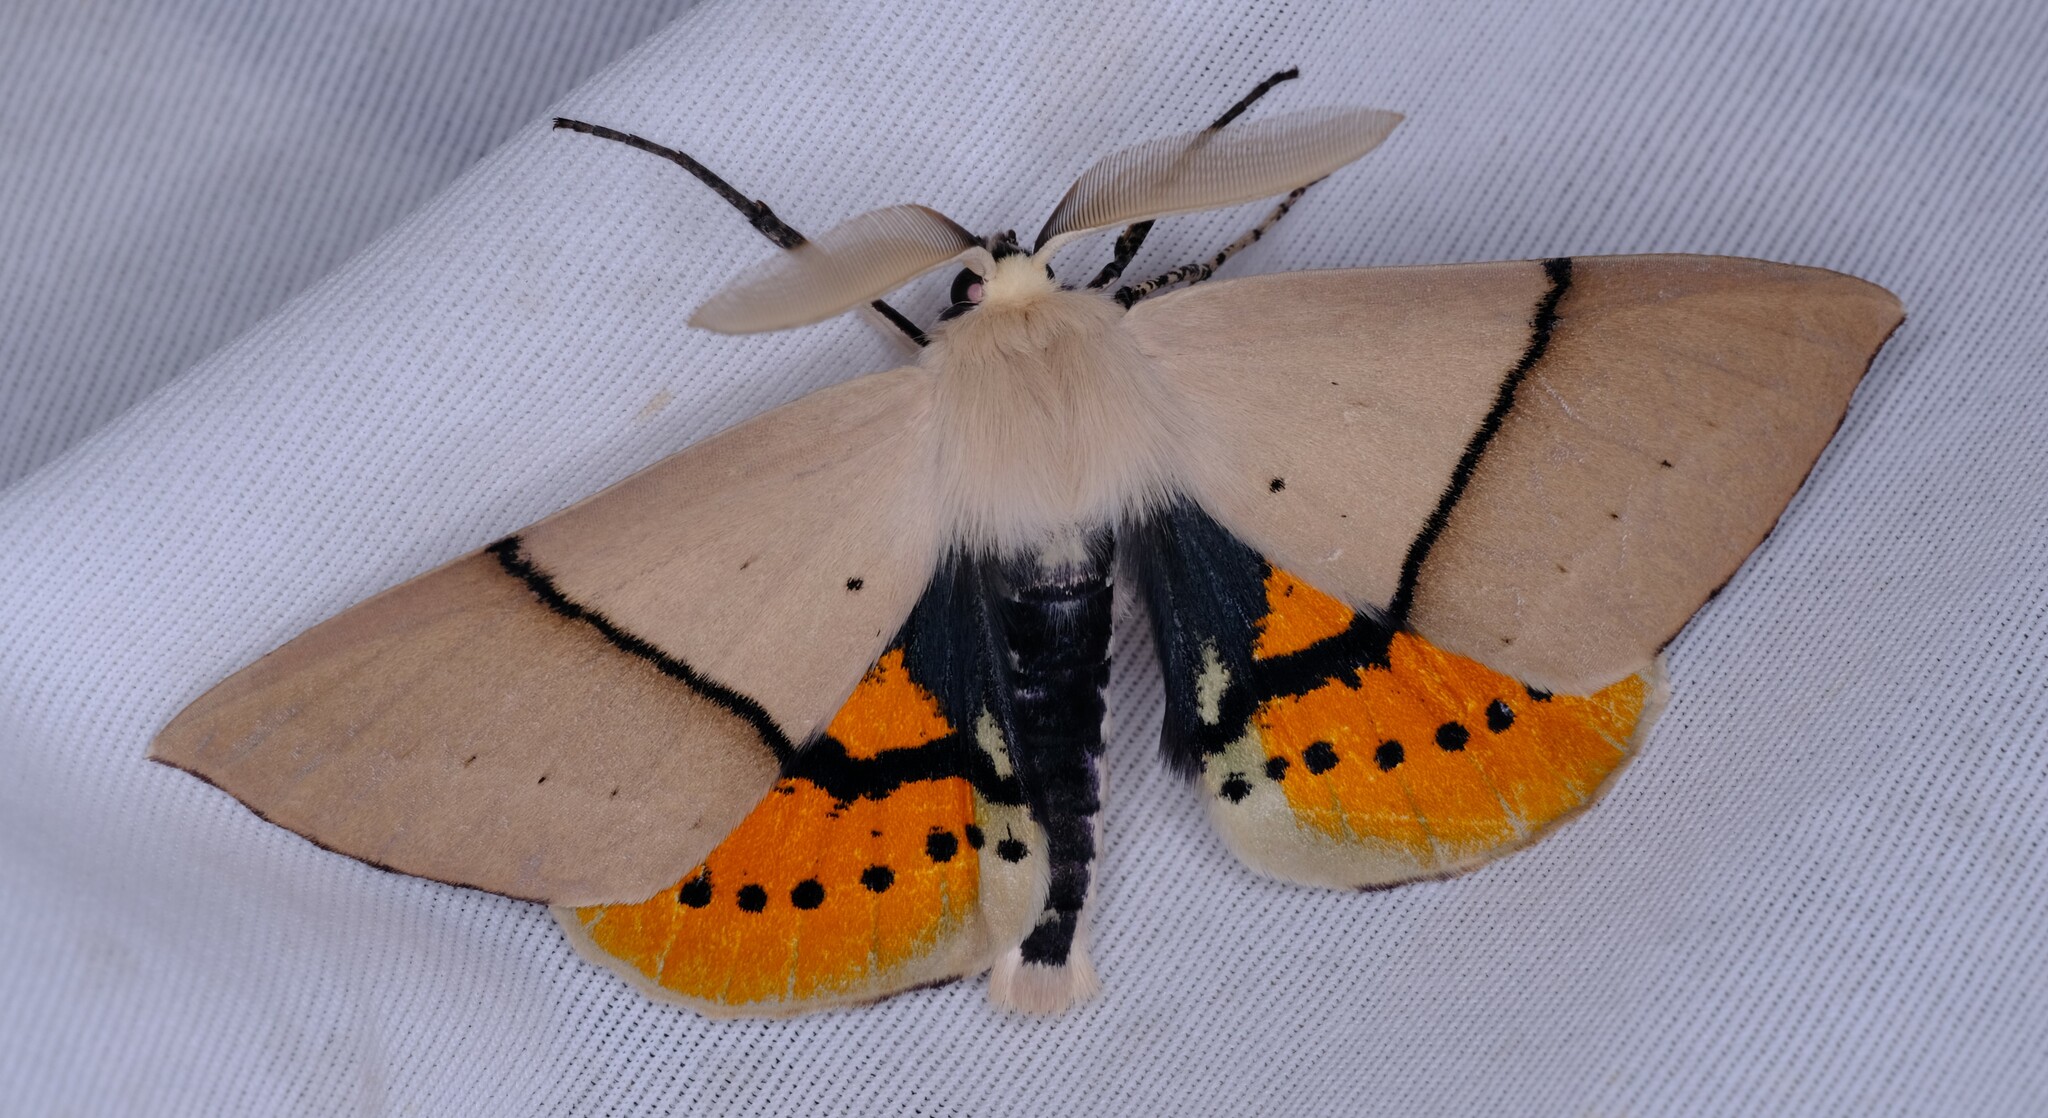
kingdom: Animalia
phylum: Arthropoda
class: Insecta
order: Lepidoptera
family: Geometridae
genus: Gastrophora
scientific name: Gastrophora henricaria
